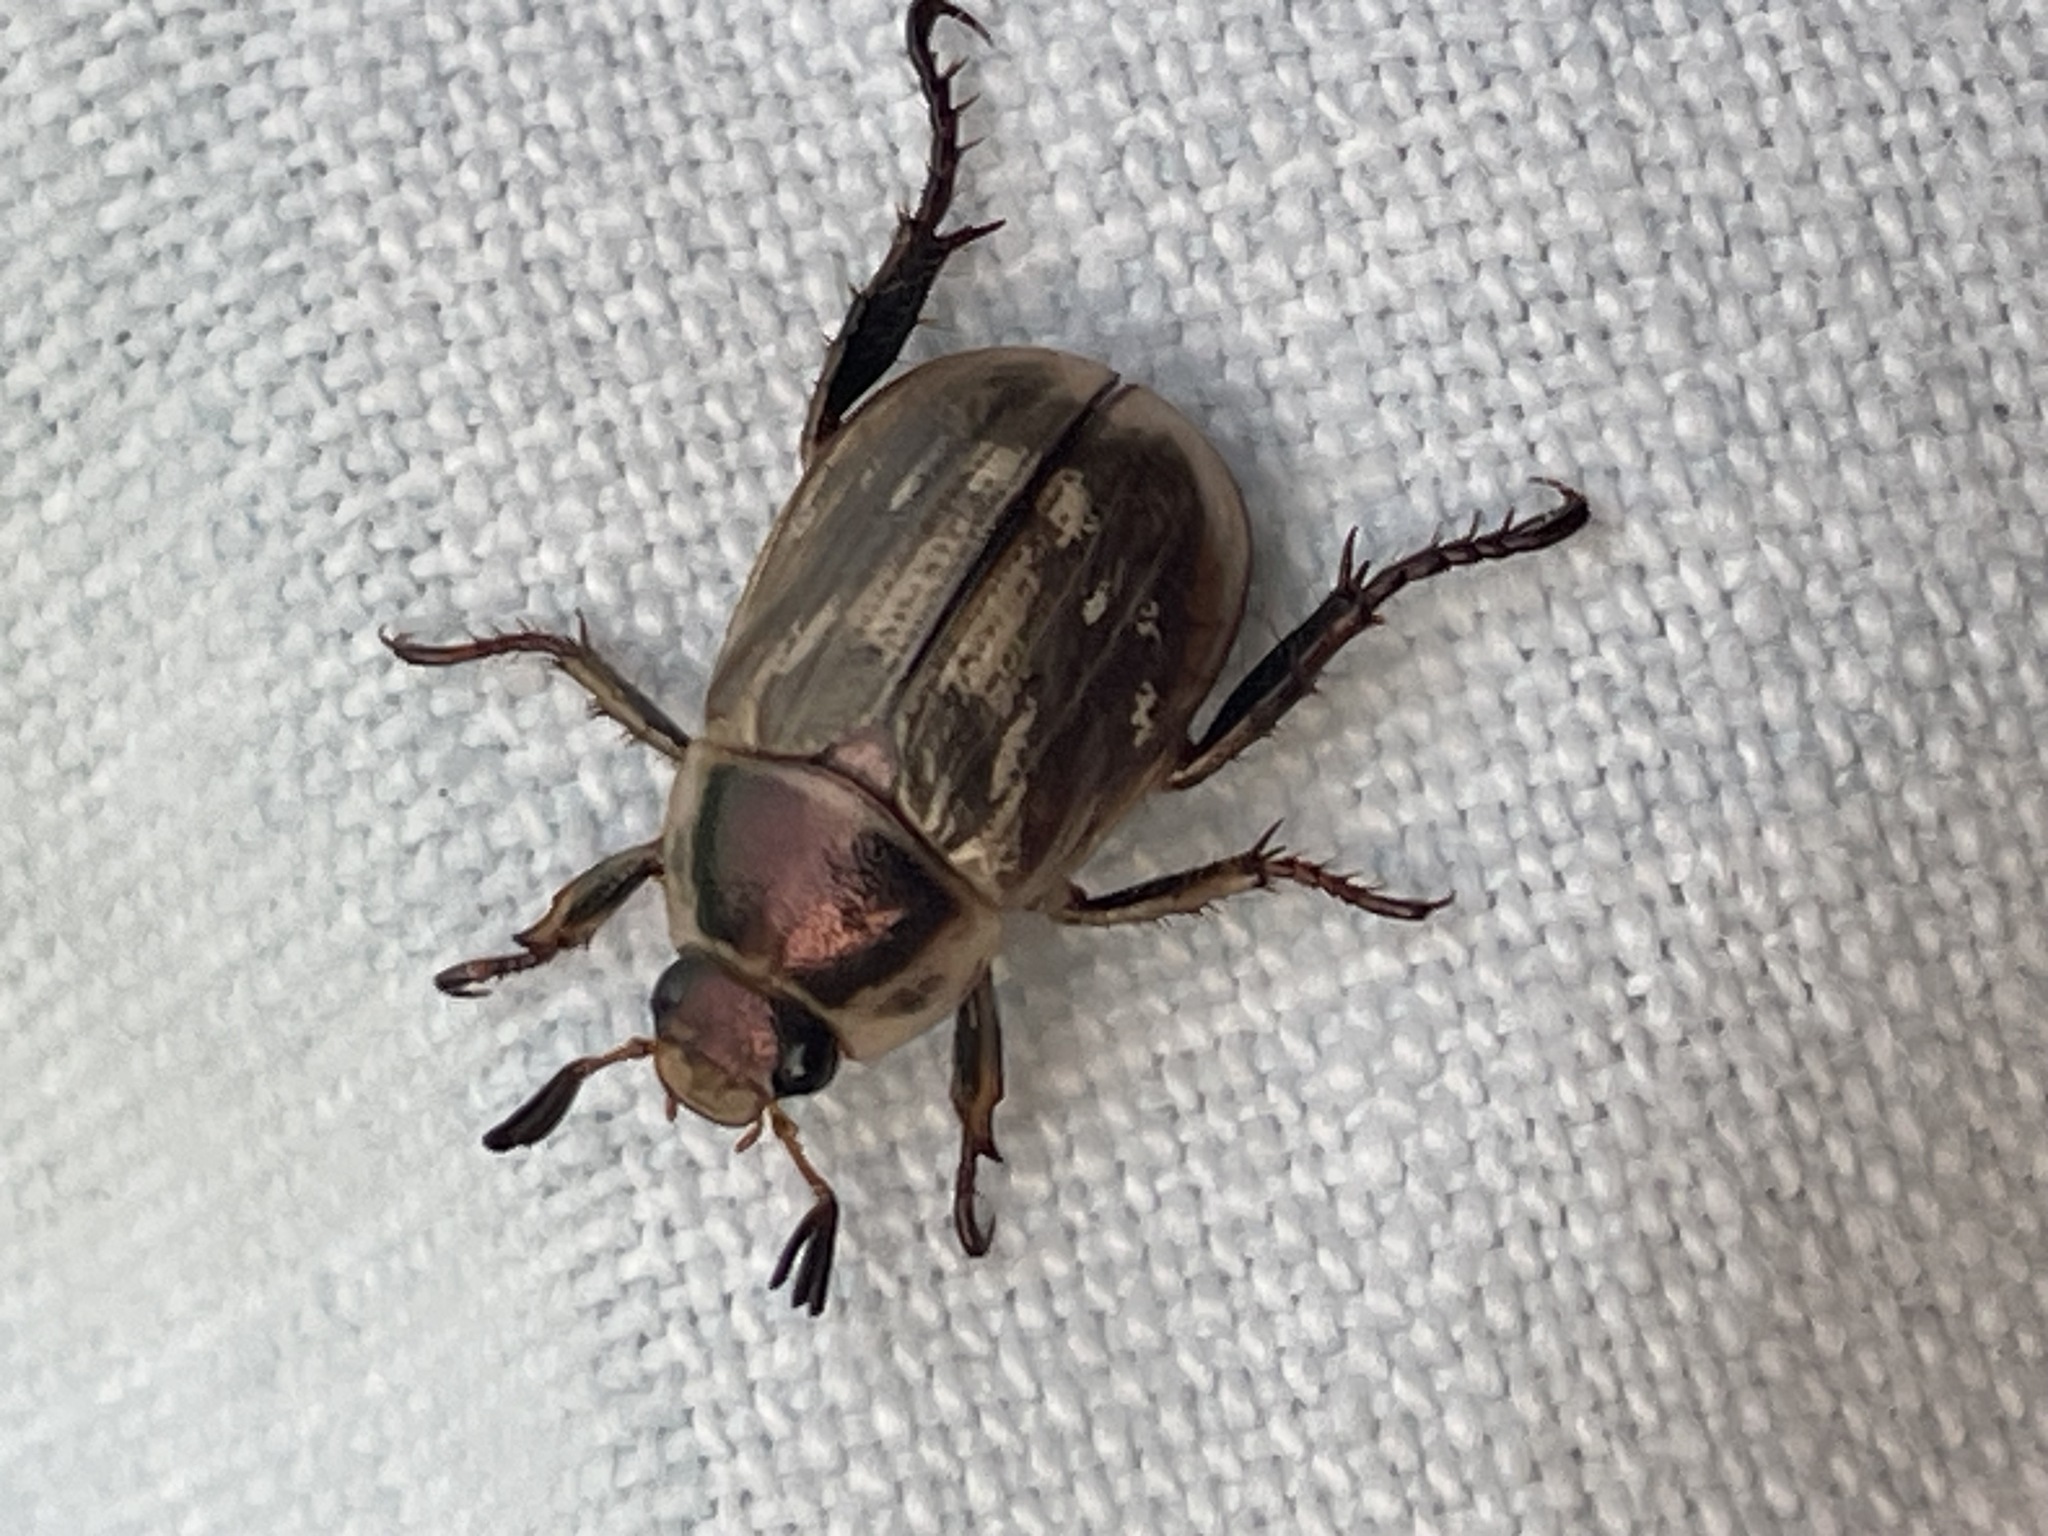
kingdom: Animalia
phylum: Arthropoda
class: Insecta
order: Coleoptera
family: Scarabaeidae
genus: Exomala
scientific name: Exomala orientalis
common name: Oriental beetle
